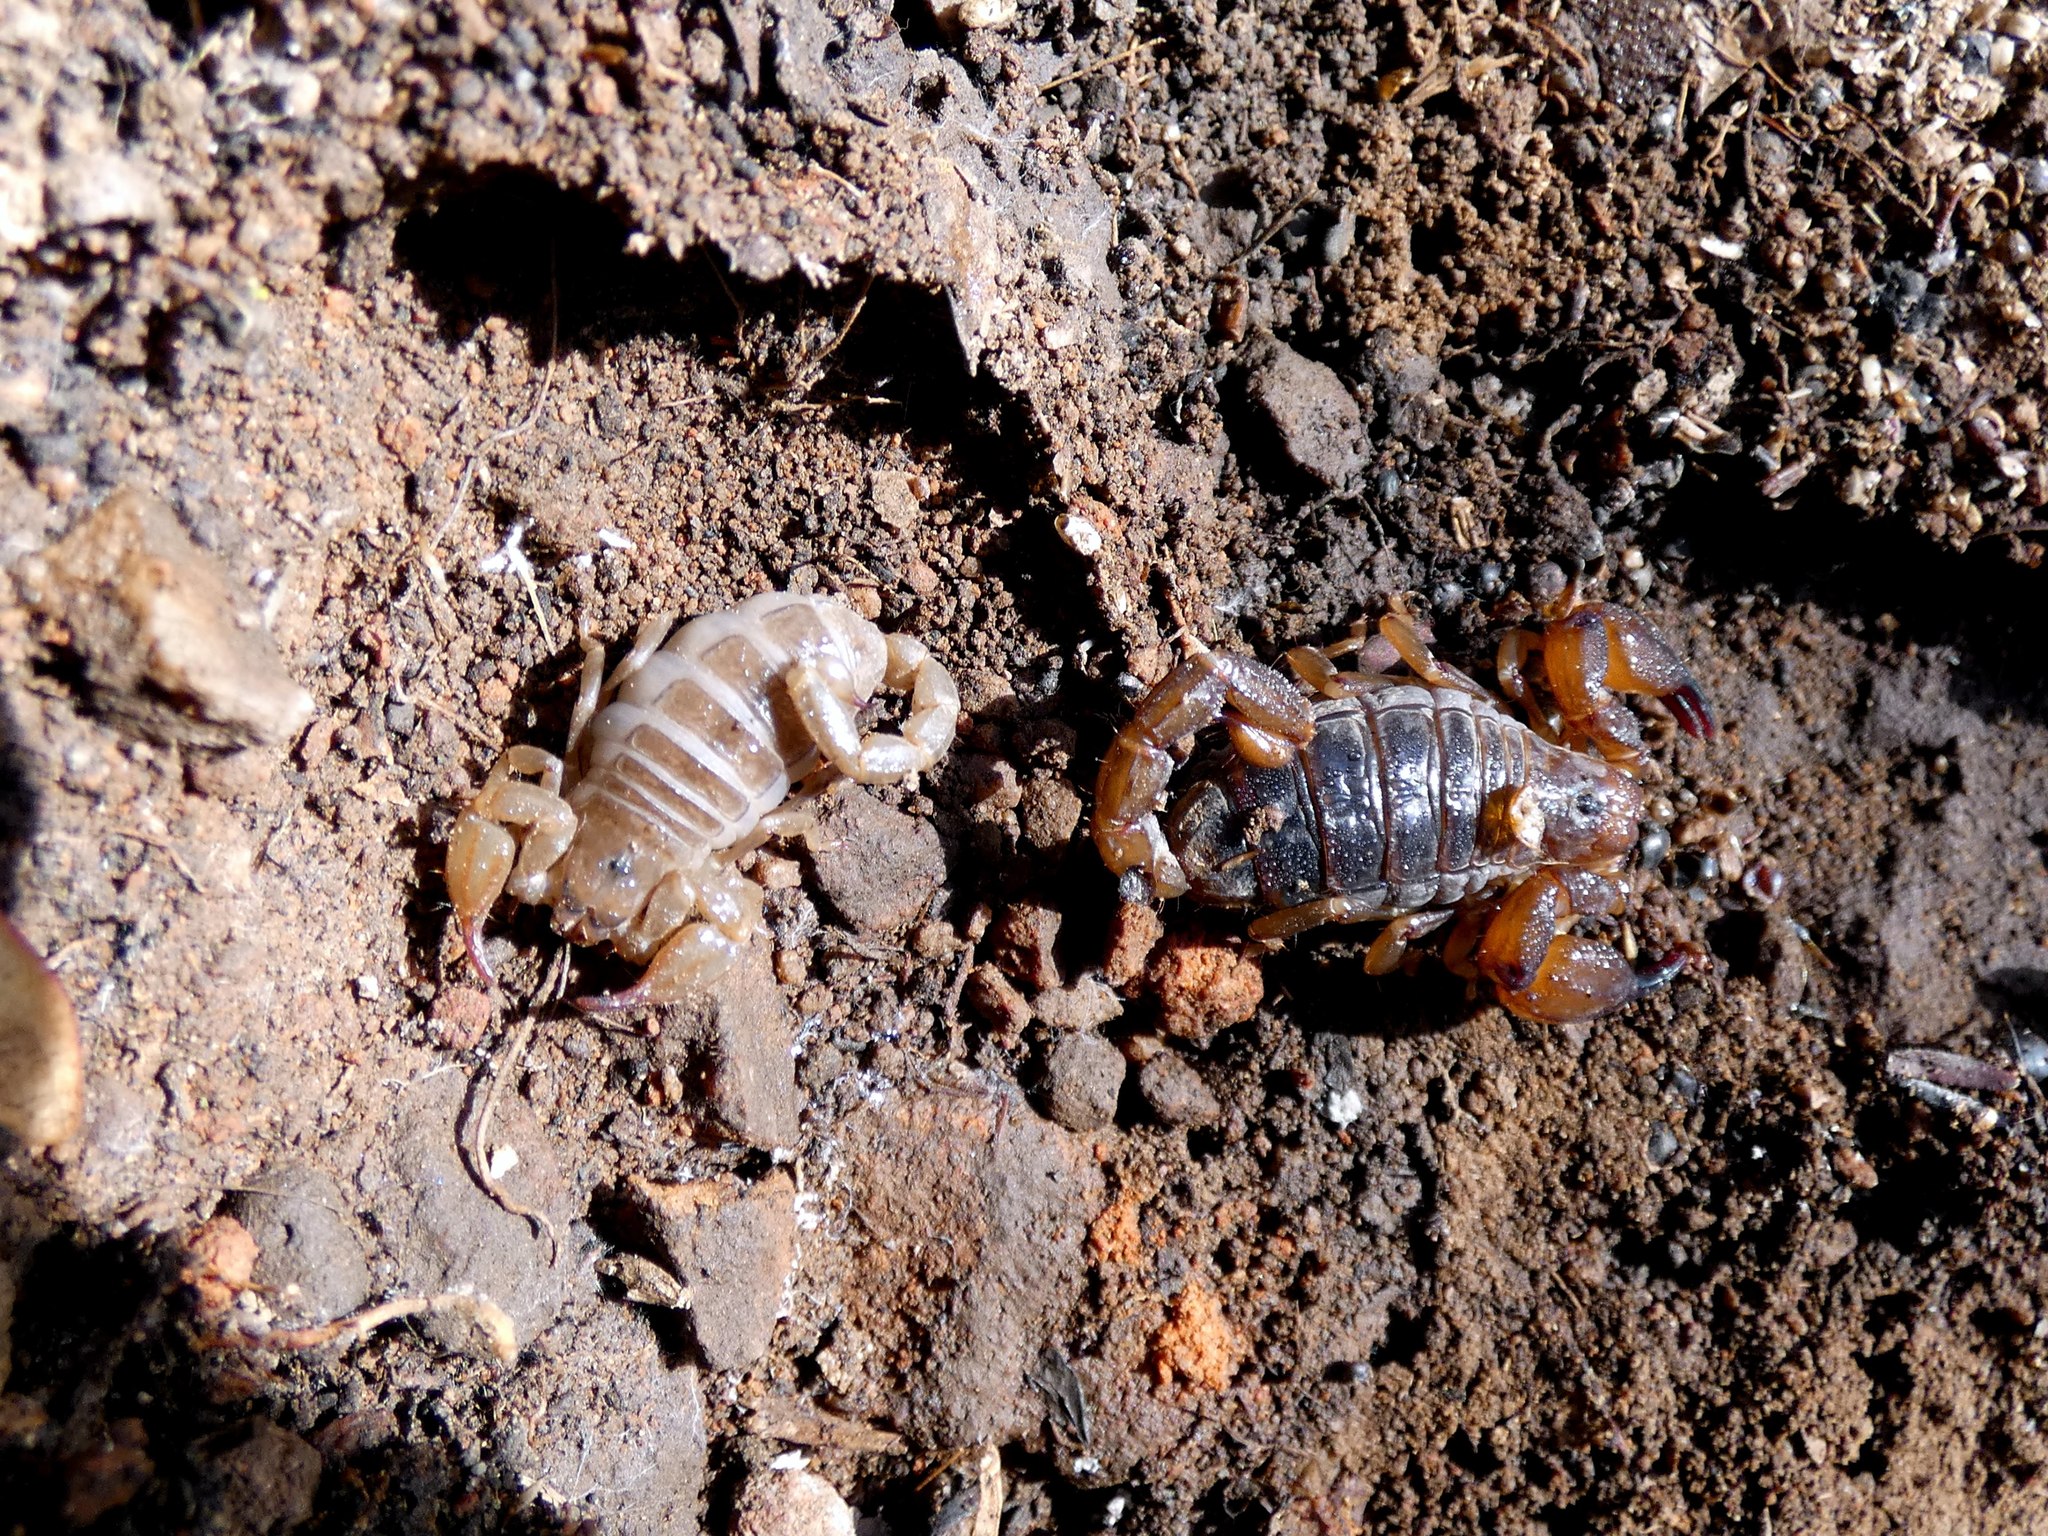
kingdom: Animalia
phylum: Arthropoda
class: Arachnida
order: Scorpiones
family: Scorpionidae
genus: Urodacus
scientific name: Urodacus manicatus
